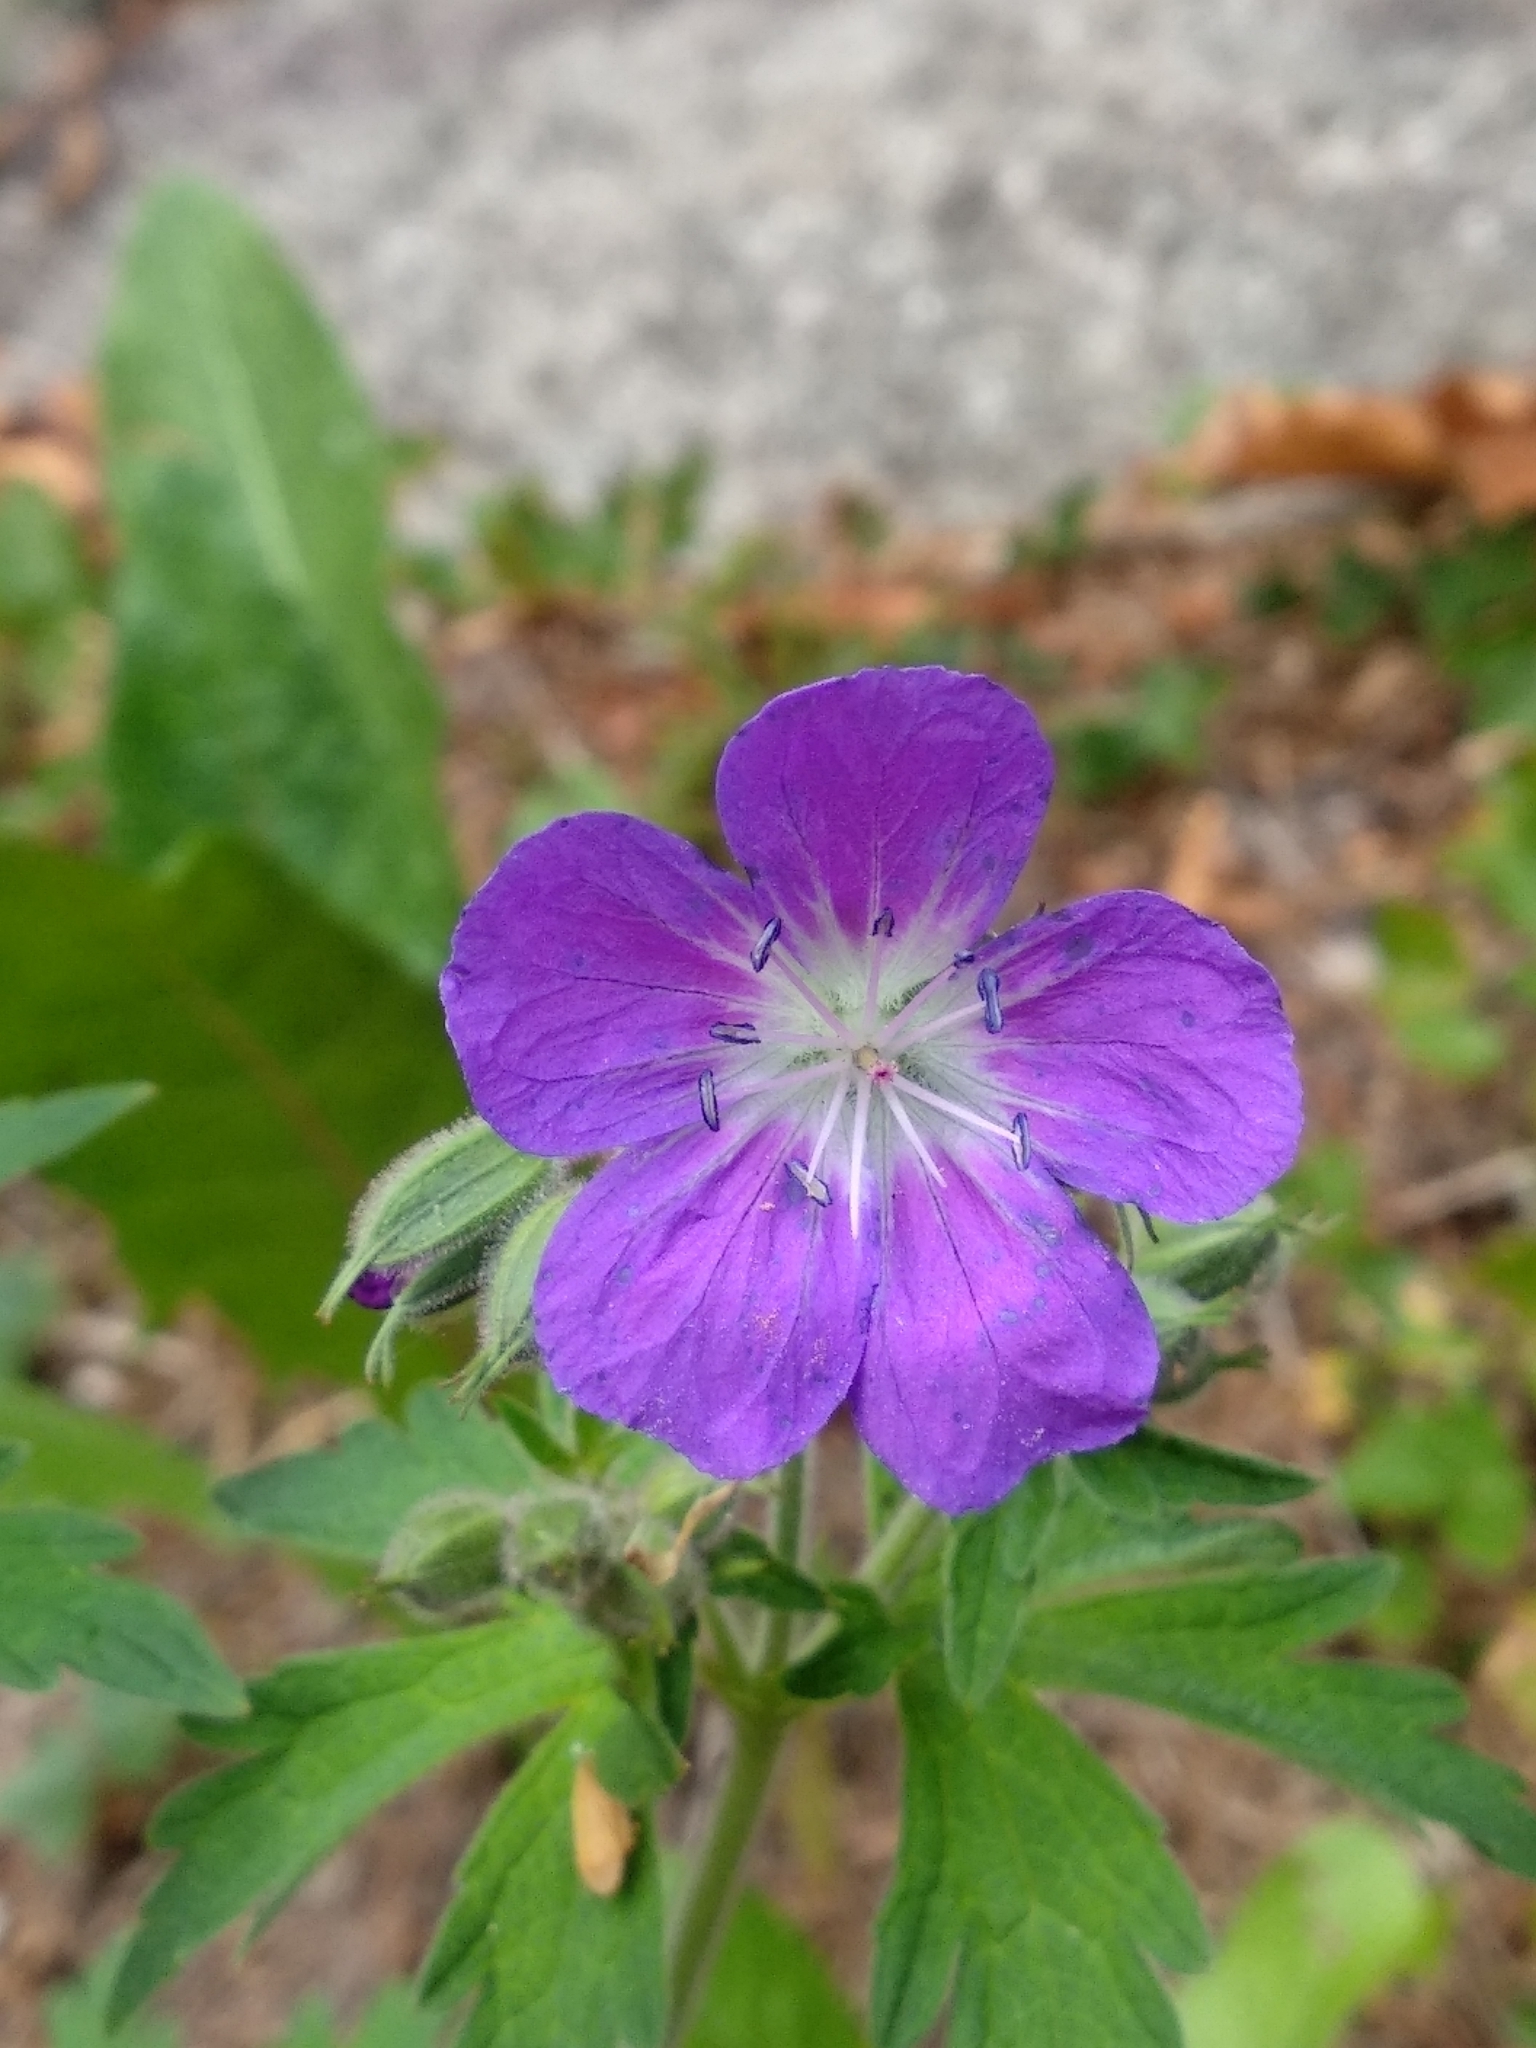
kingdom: Plantae
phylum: Tracheophyta
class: Magnoliopsida
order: Geraniales
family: Geraniaceae
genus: Geranium
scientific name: Geranium sylvaticum
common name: Wood crane's-bill
